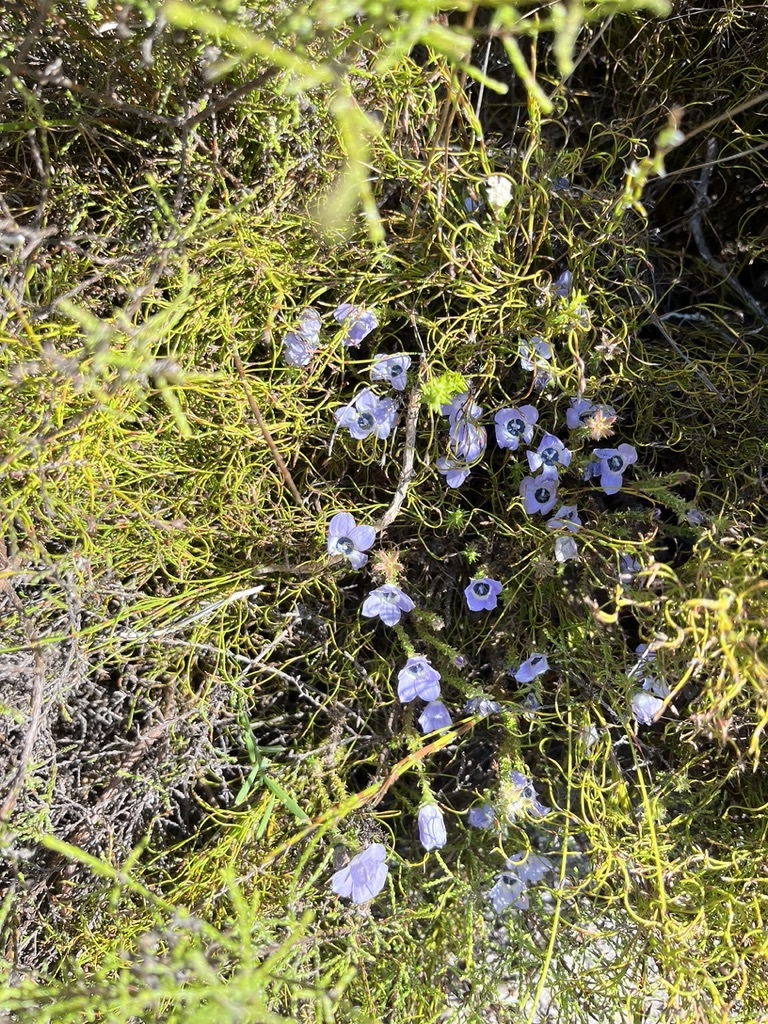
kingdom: Plantae
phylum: Tracheophyta
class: Magnoliopsida
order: Asterales
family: Campanulaceae
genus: Roella
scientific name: Roella triflora
